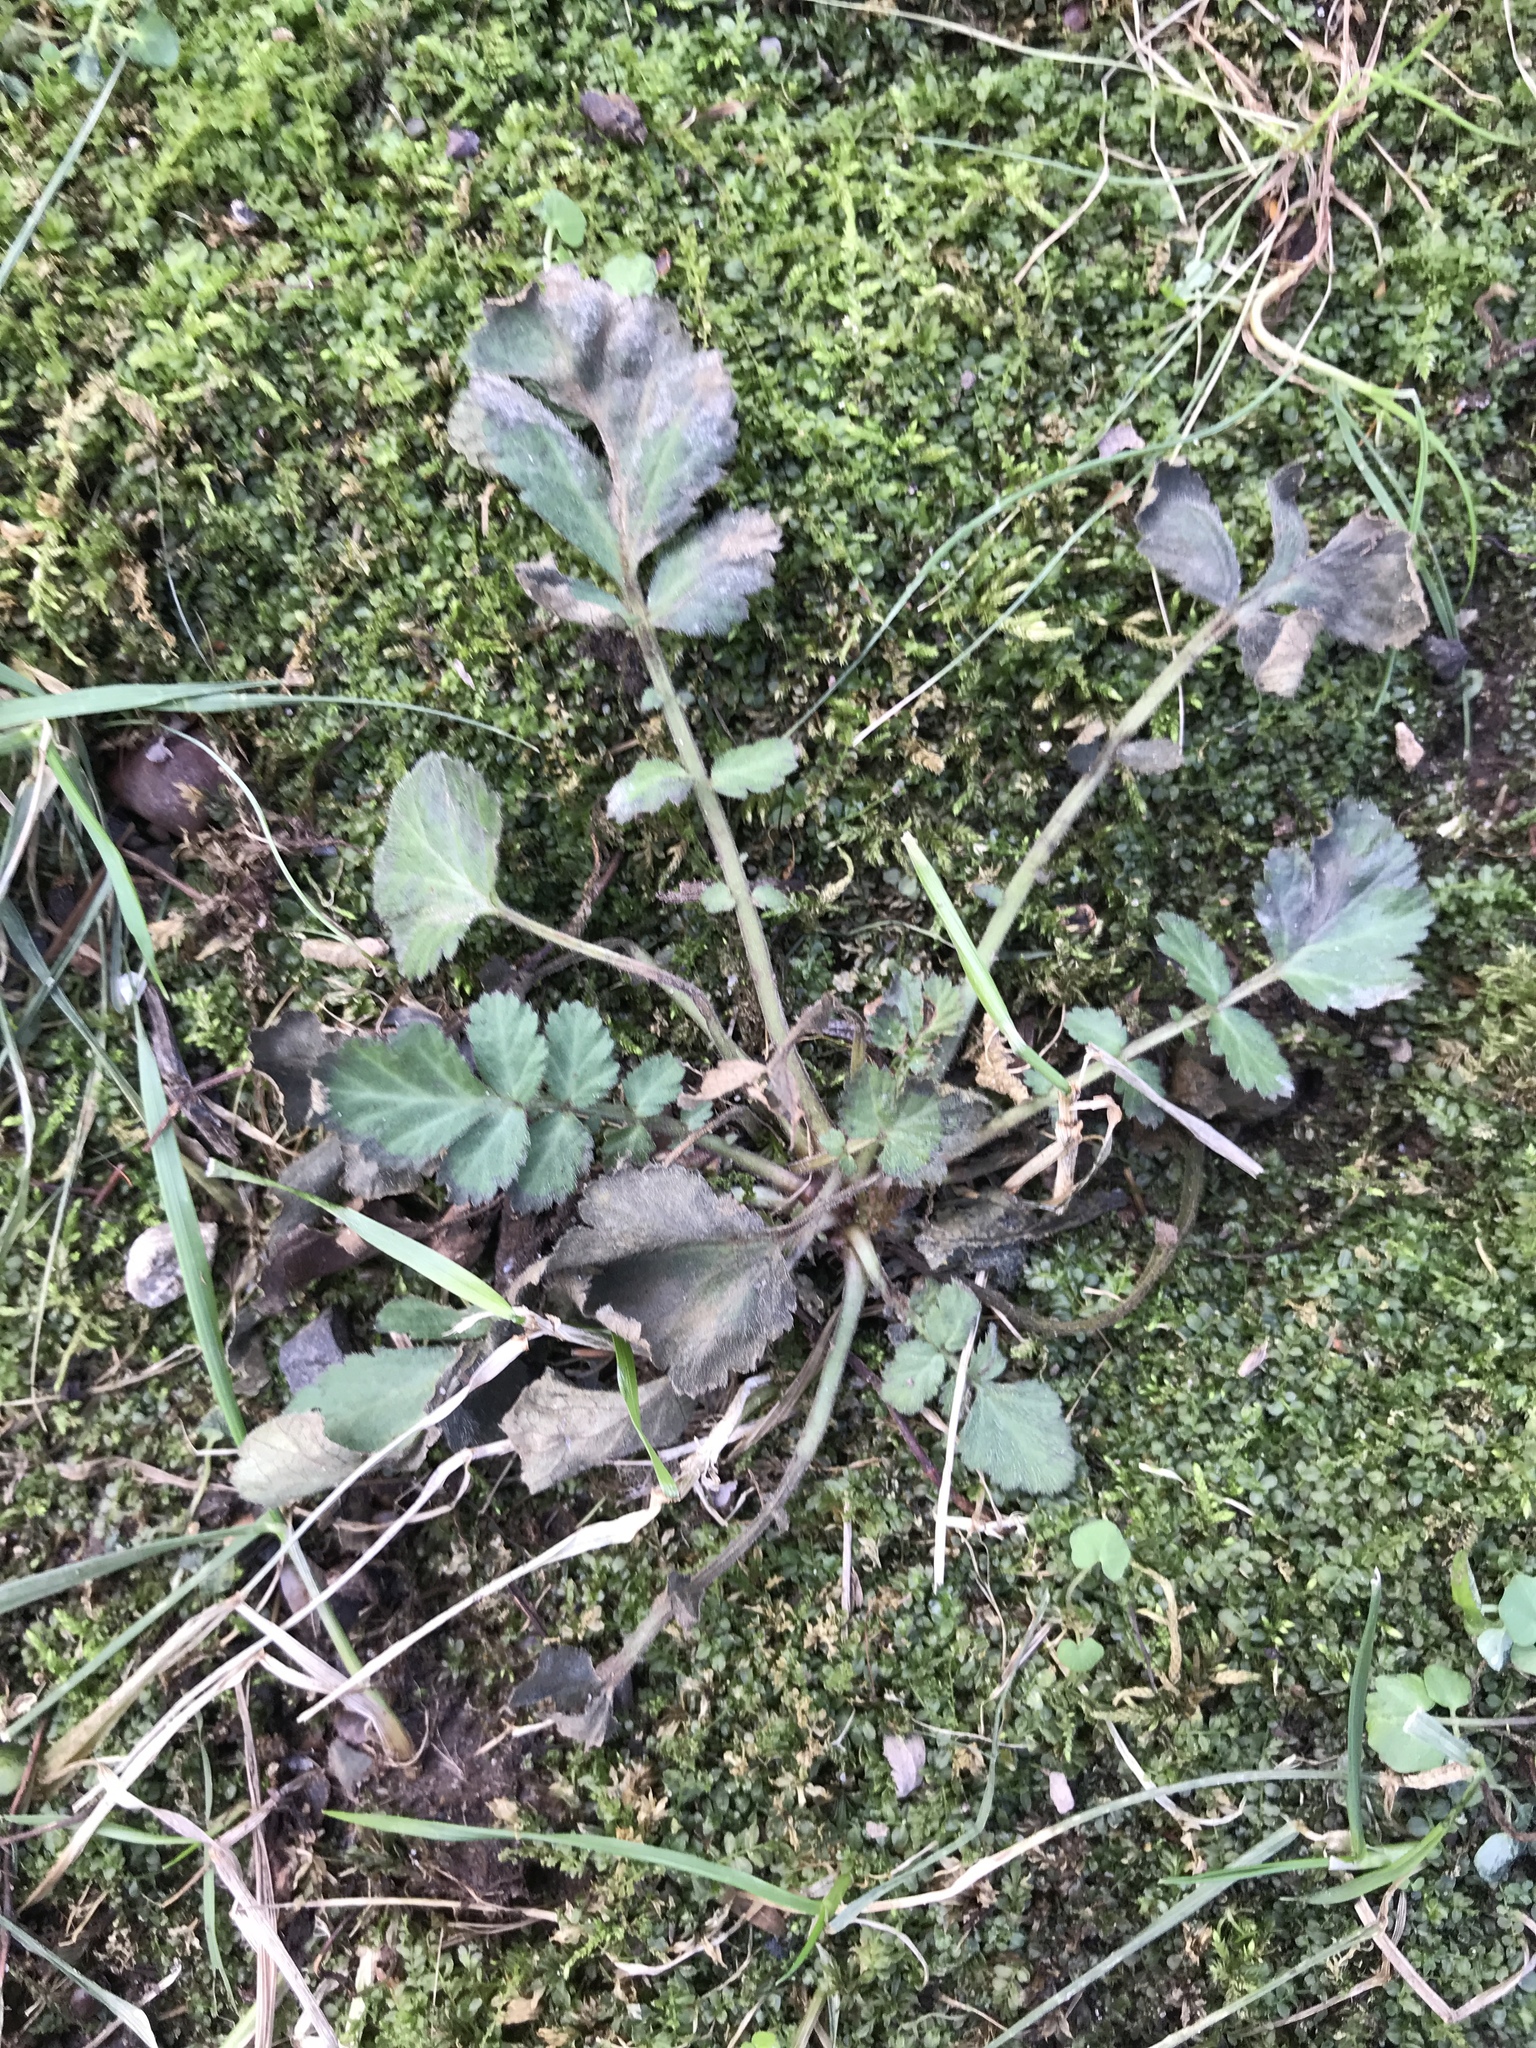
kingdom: Plantae
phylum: Tracheophyta
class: Magnoliopsida
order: Rosales
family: Rosaceae
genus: Geum
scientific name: Geum canadense
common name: White avens
